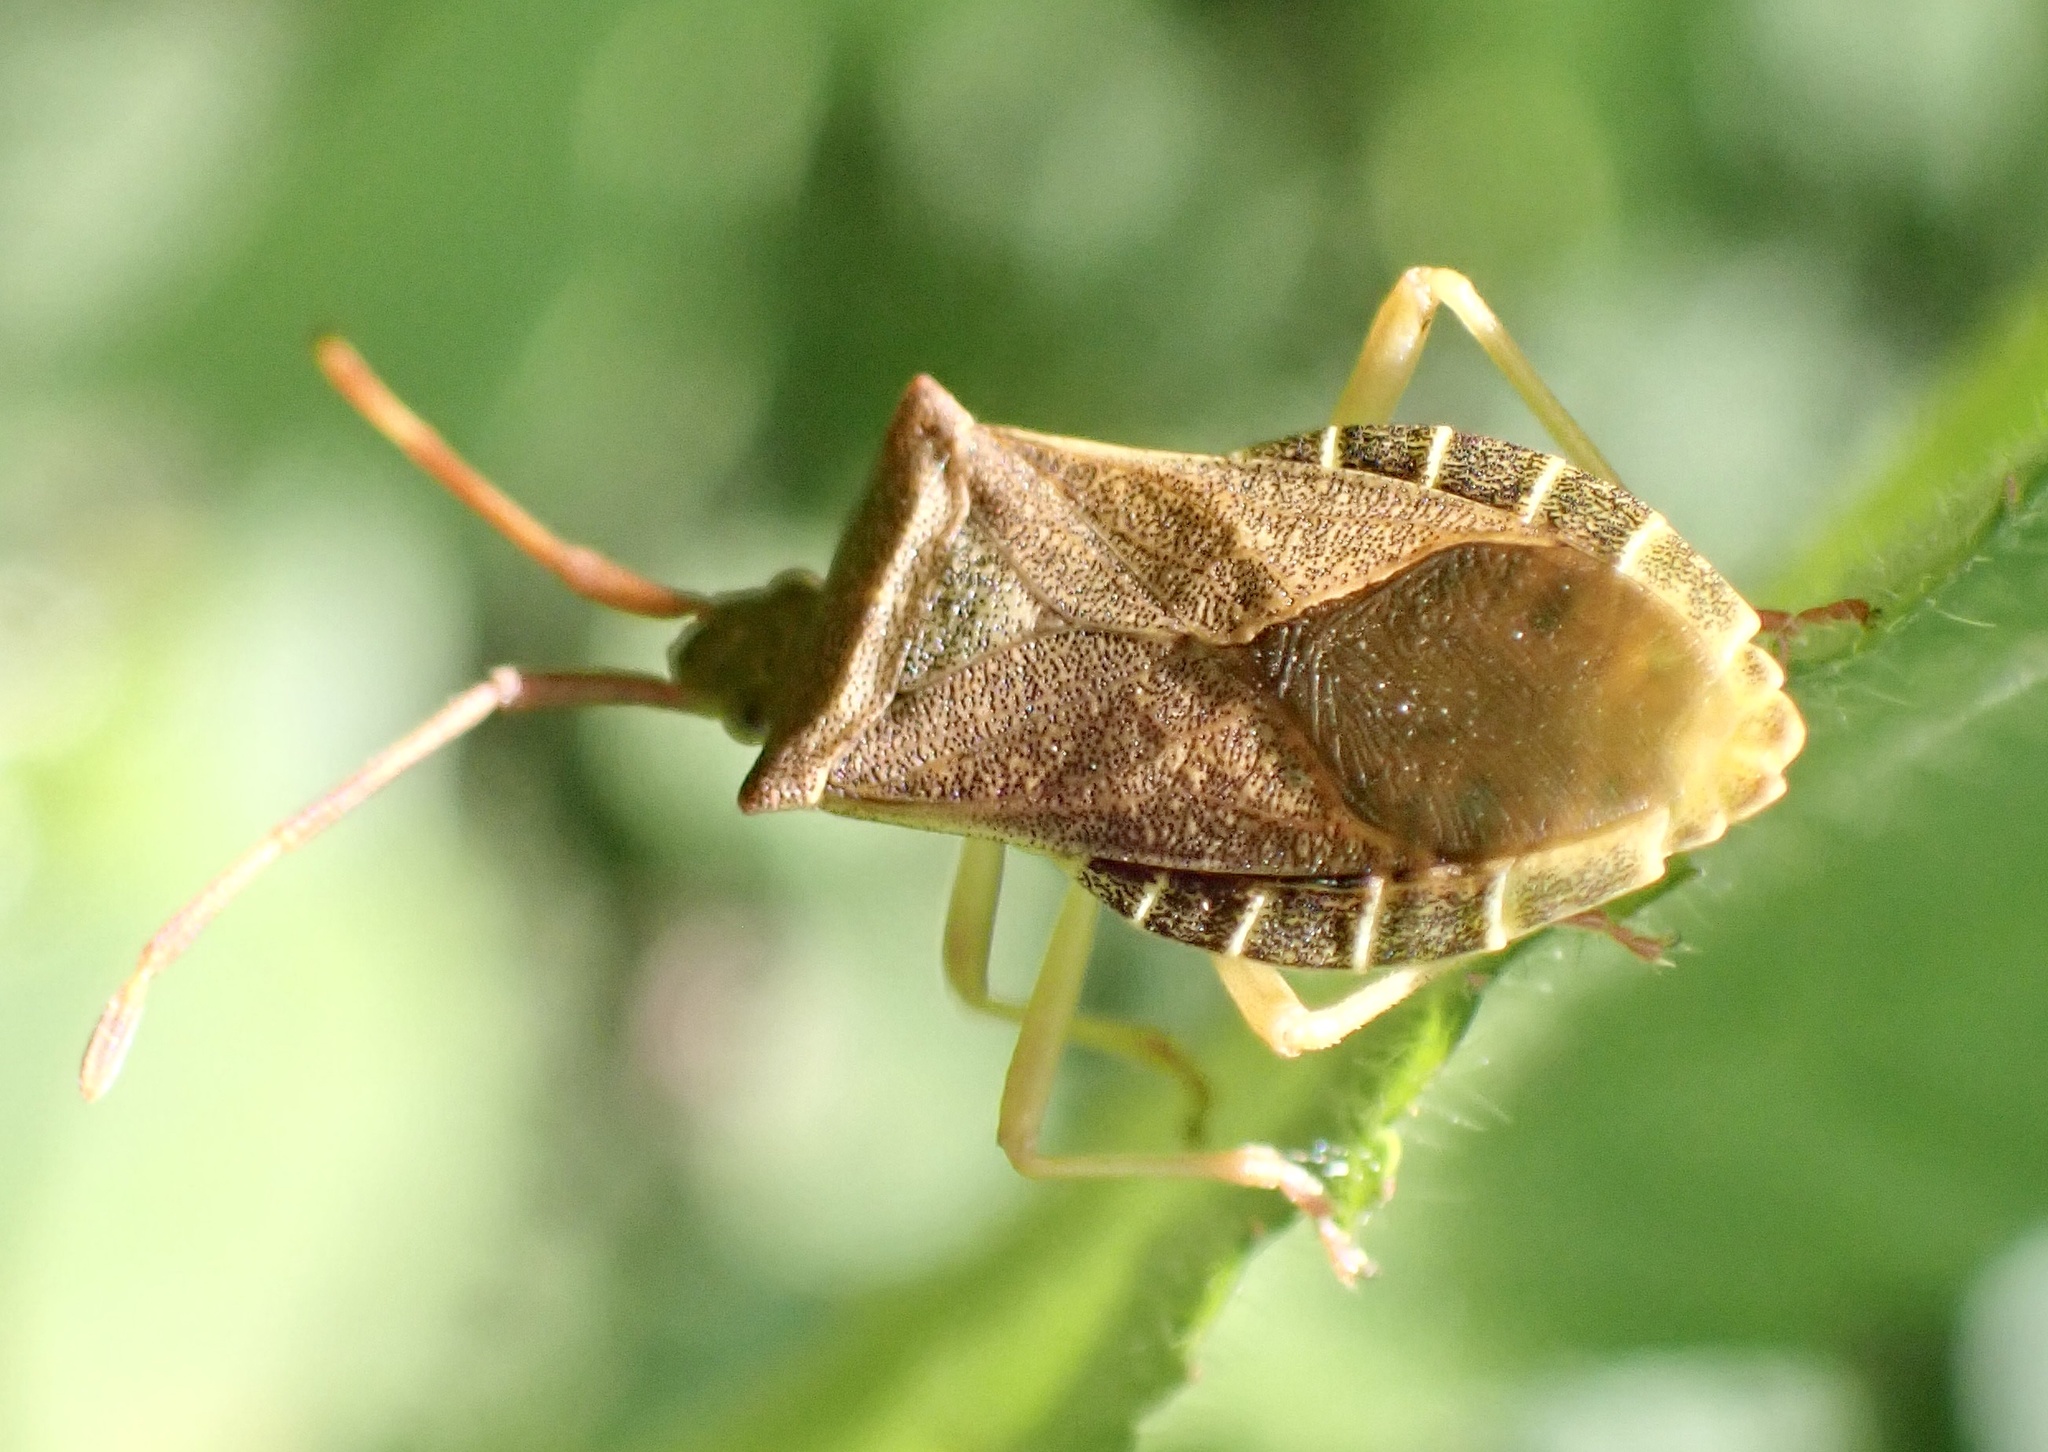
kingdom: Animalia
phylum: Arthropoda
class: Insecta
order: Hemiptera
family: Coreidae
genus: Gonocerus
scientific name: Gonocerus acuteangulatus
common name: Box bug
